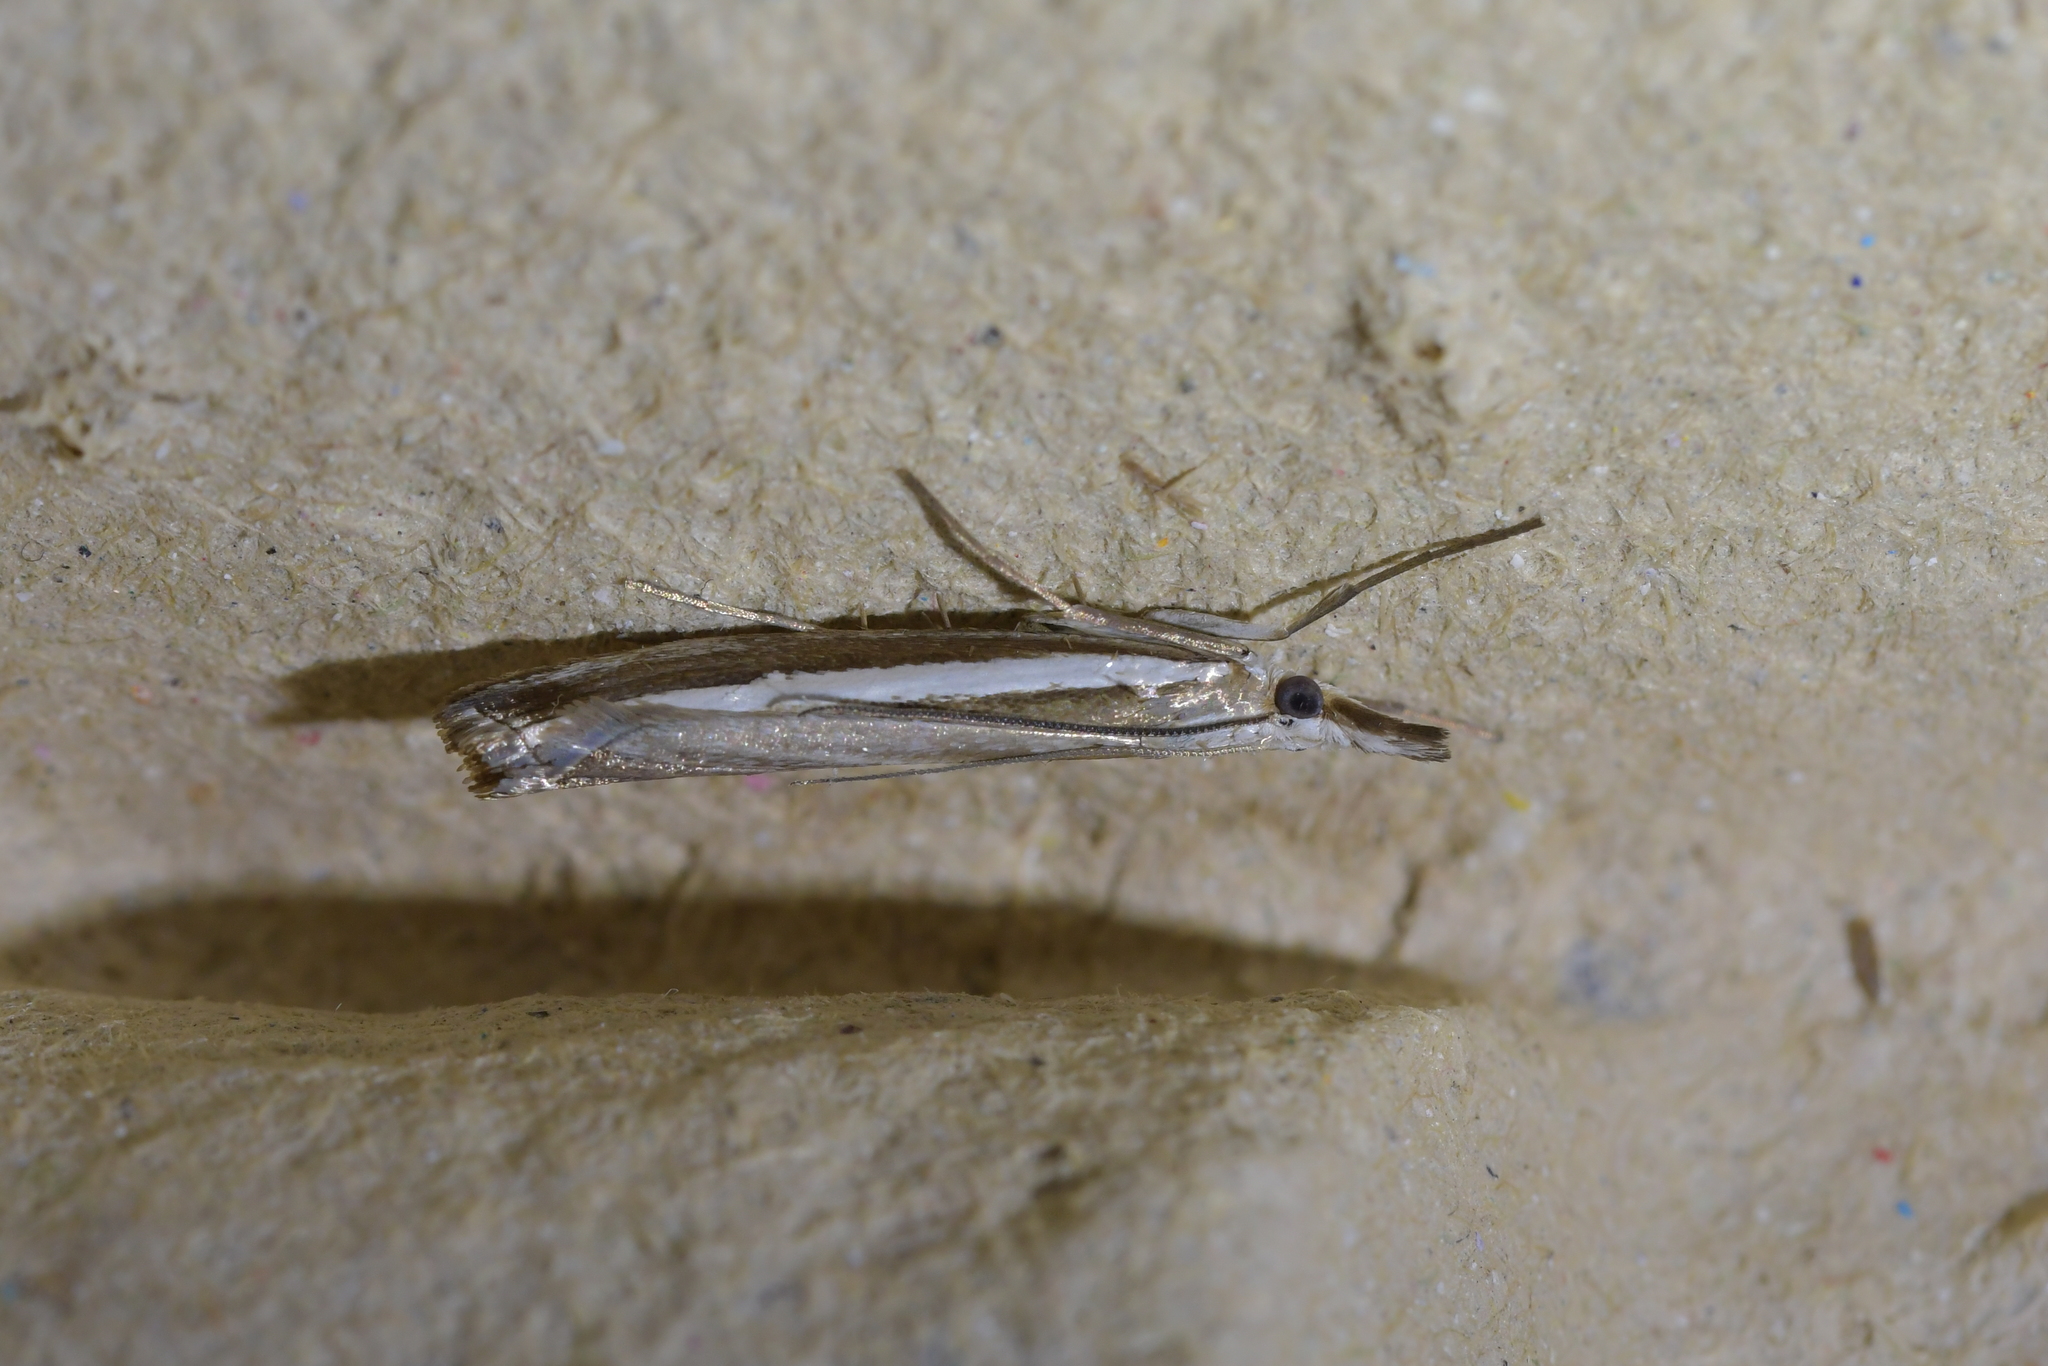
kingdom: Animalia
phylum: Arthropoda
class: Insecta
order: Lepidoptera
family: Crambidae
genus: Orocrambus
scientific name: Orocrambus vittellus
